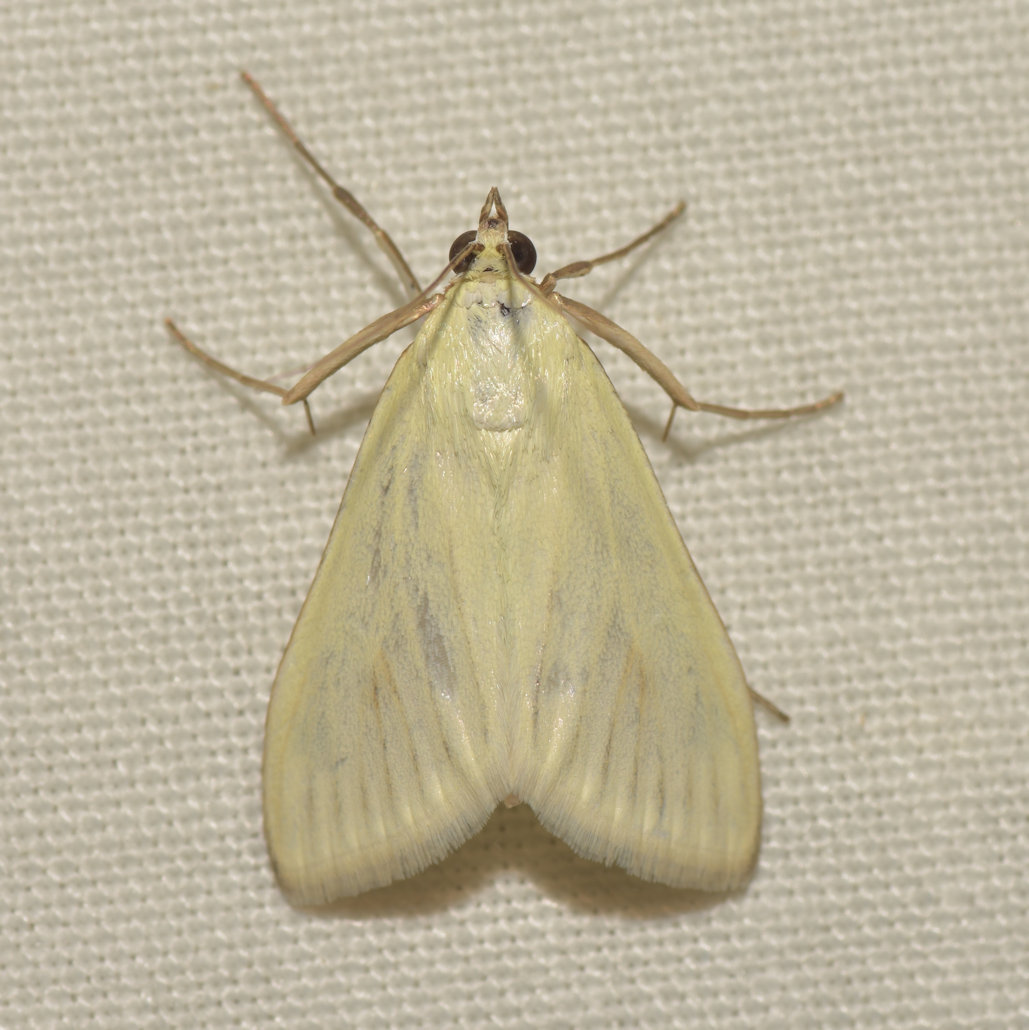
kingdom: Animalia
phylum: Arthropoda
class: Insecta
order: Lepidoptera
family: Crambidae
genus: Sitochroa
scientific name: Sitochroa palealis
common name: Greenish-yellow sitochroa moth
